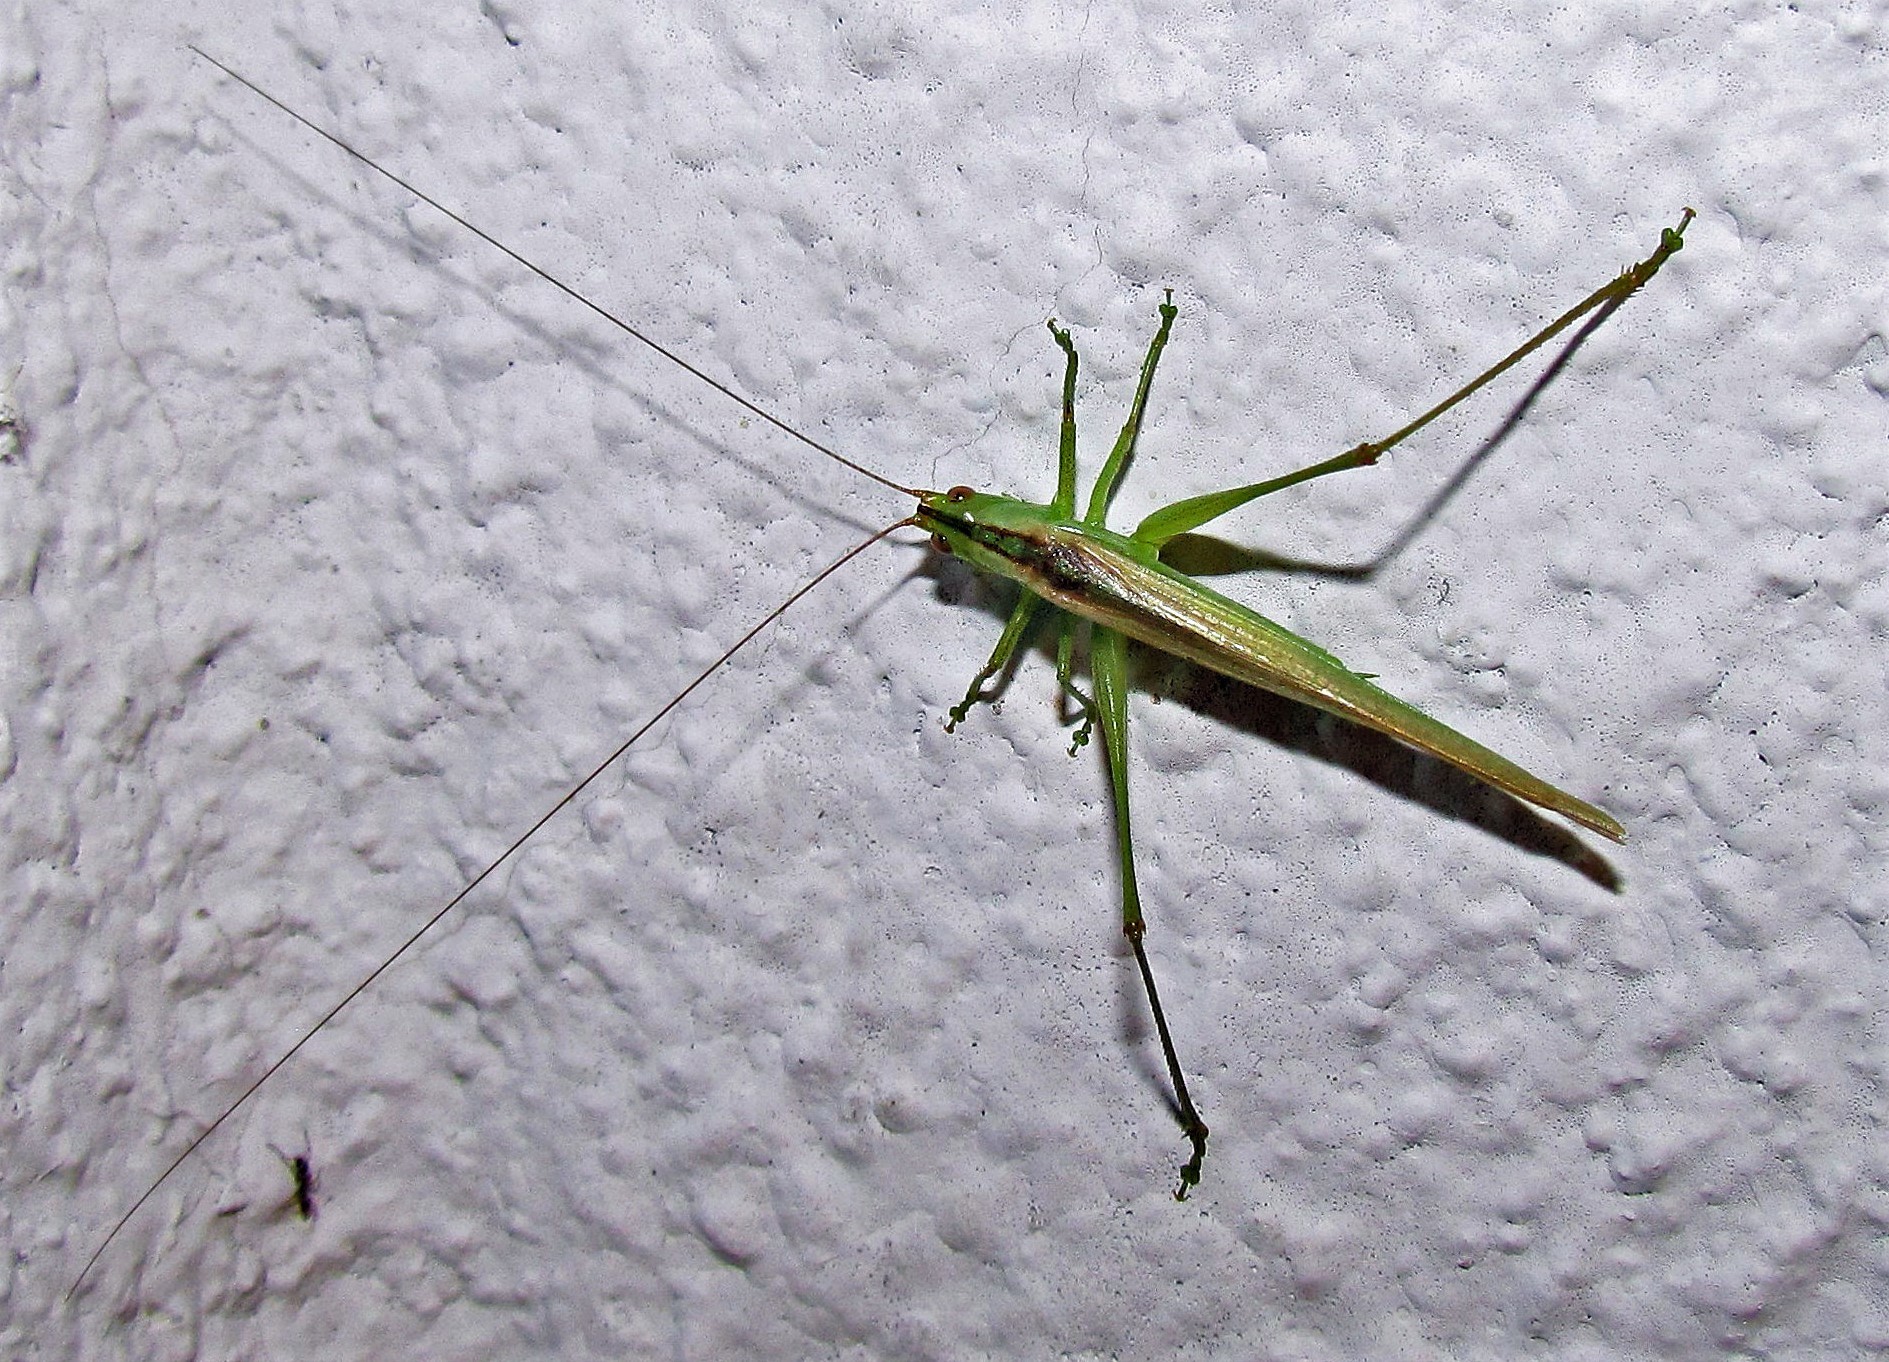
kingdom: Animalia
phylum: Arthropoda
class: Insecta
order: Orthoptera
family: Tettigoniidae
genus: Conocephalus
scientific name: Conocephalus longipes
